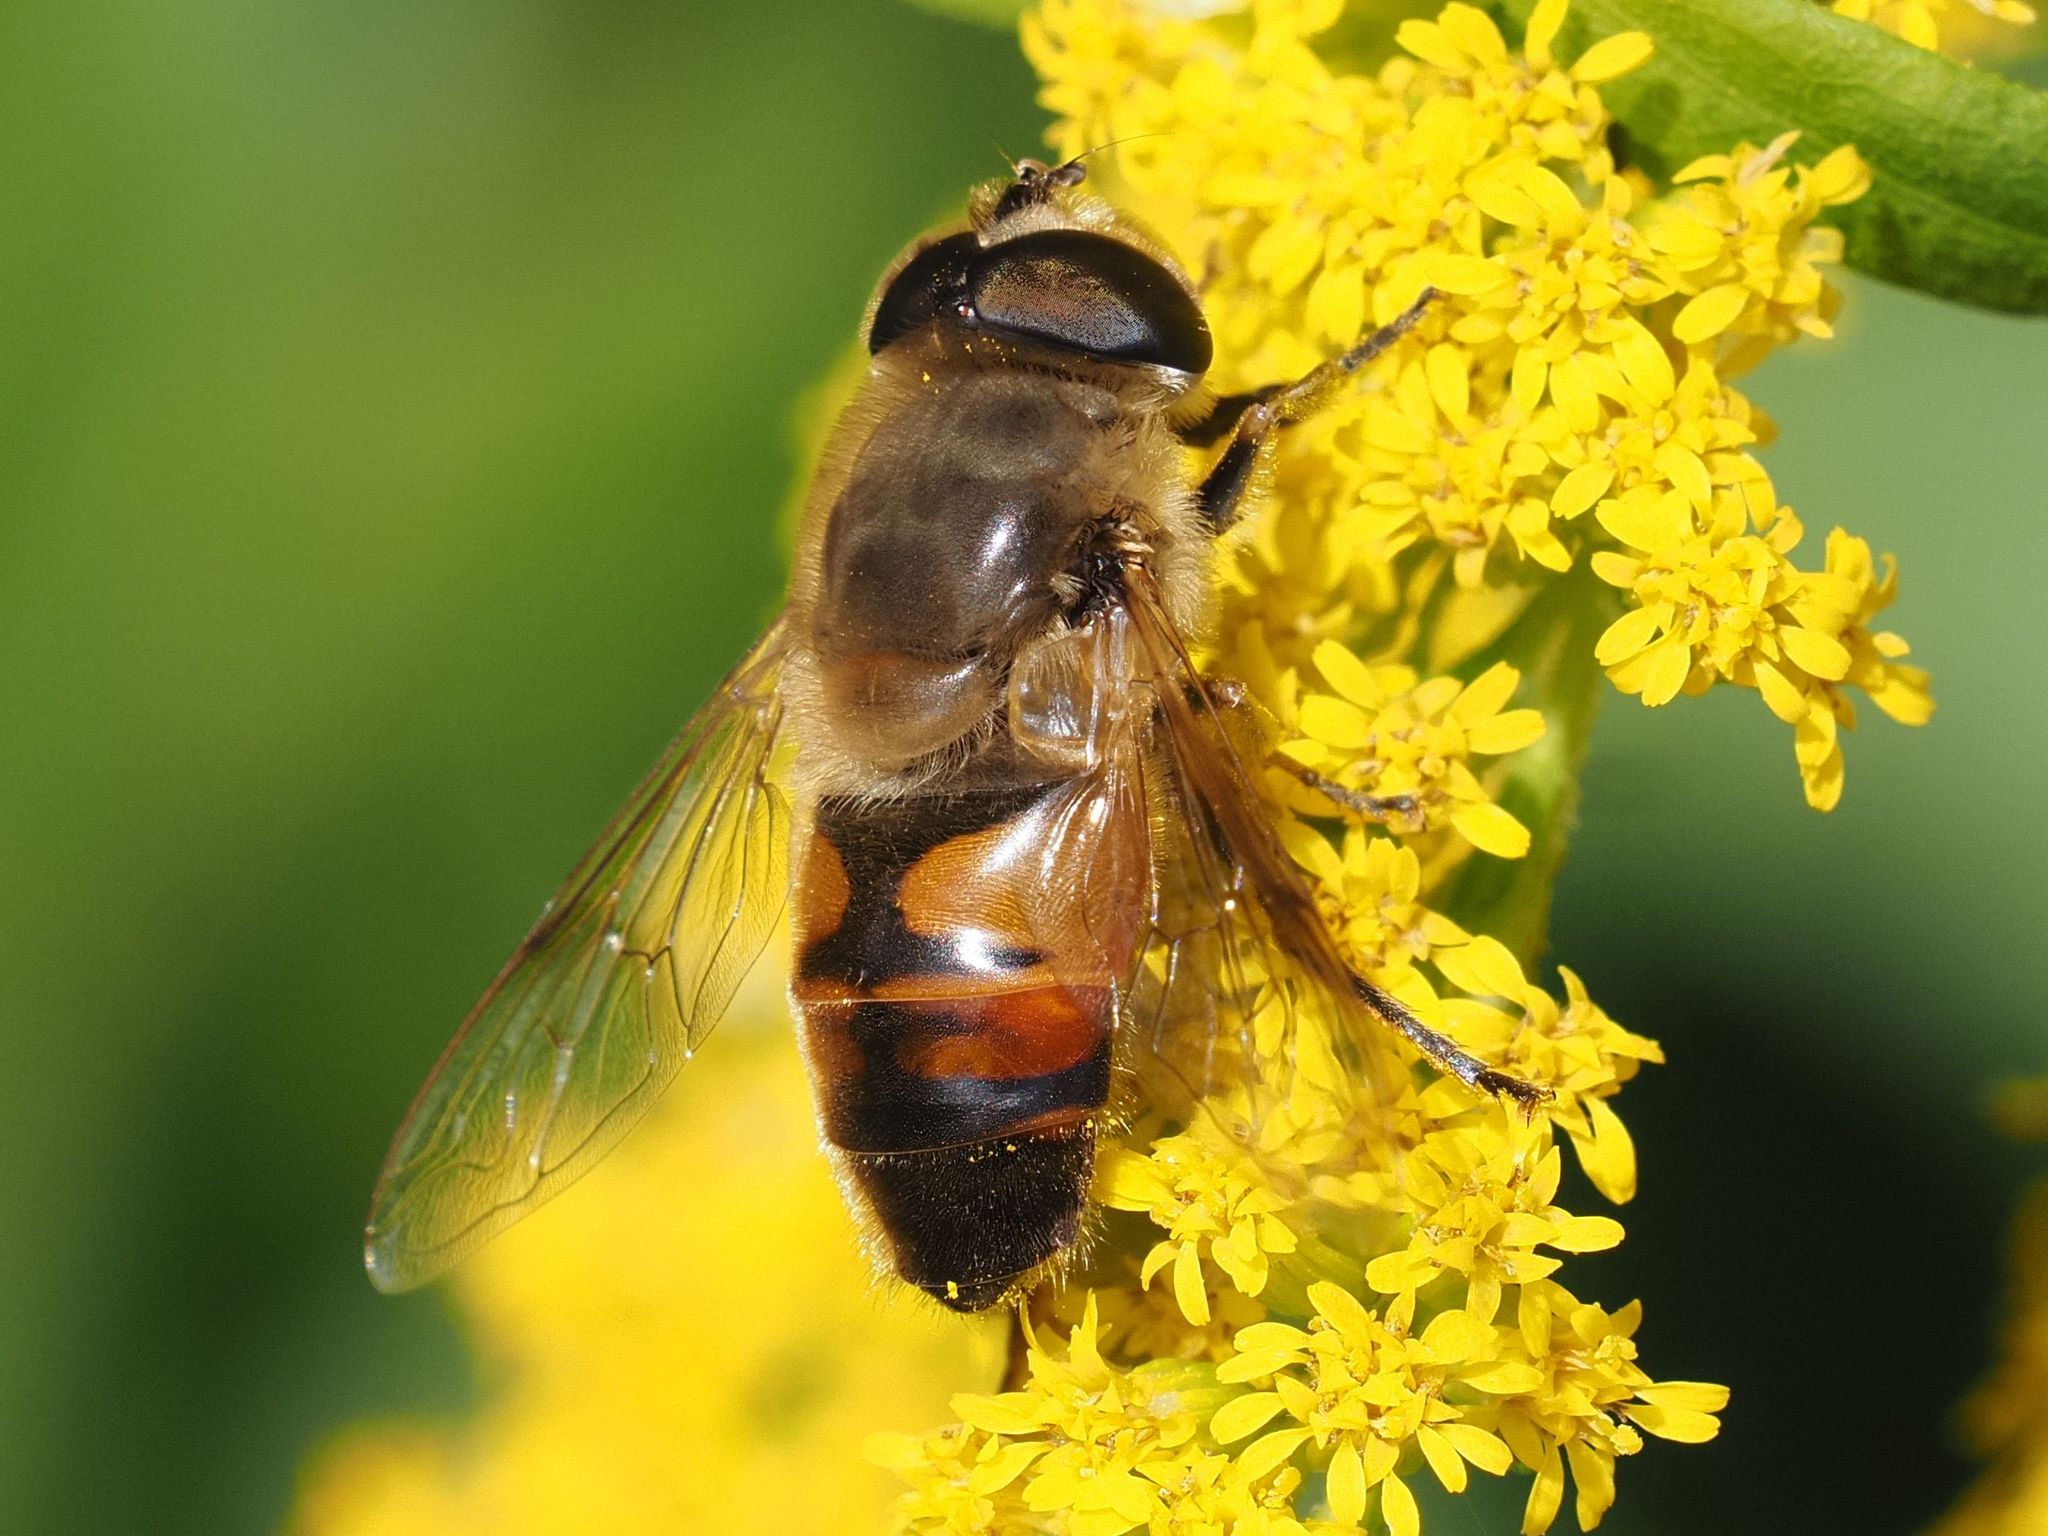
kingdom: Animalia
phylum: Arthropoda
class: Insecta
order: Diptera
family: Syrphidae
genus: Eristalis
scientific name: Eristalis tenax
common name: Drone fly
